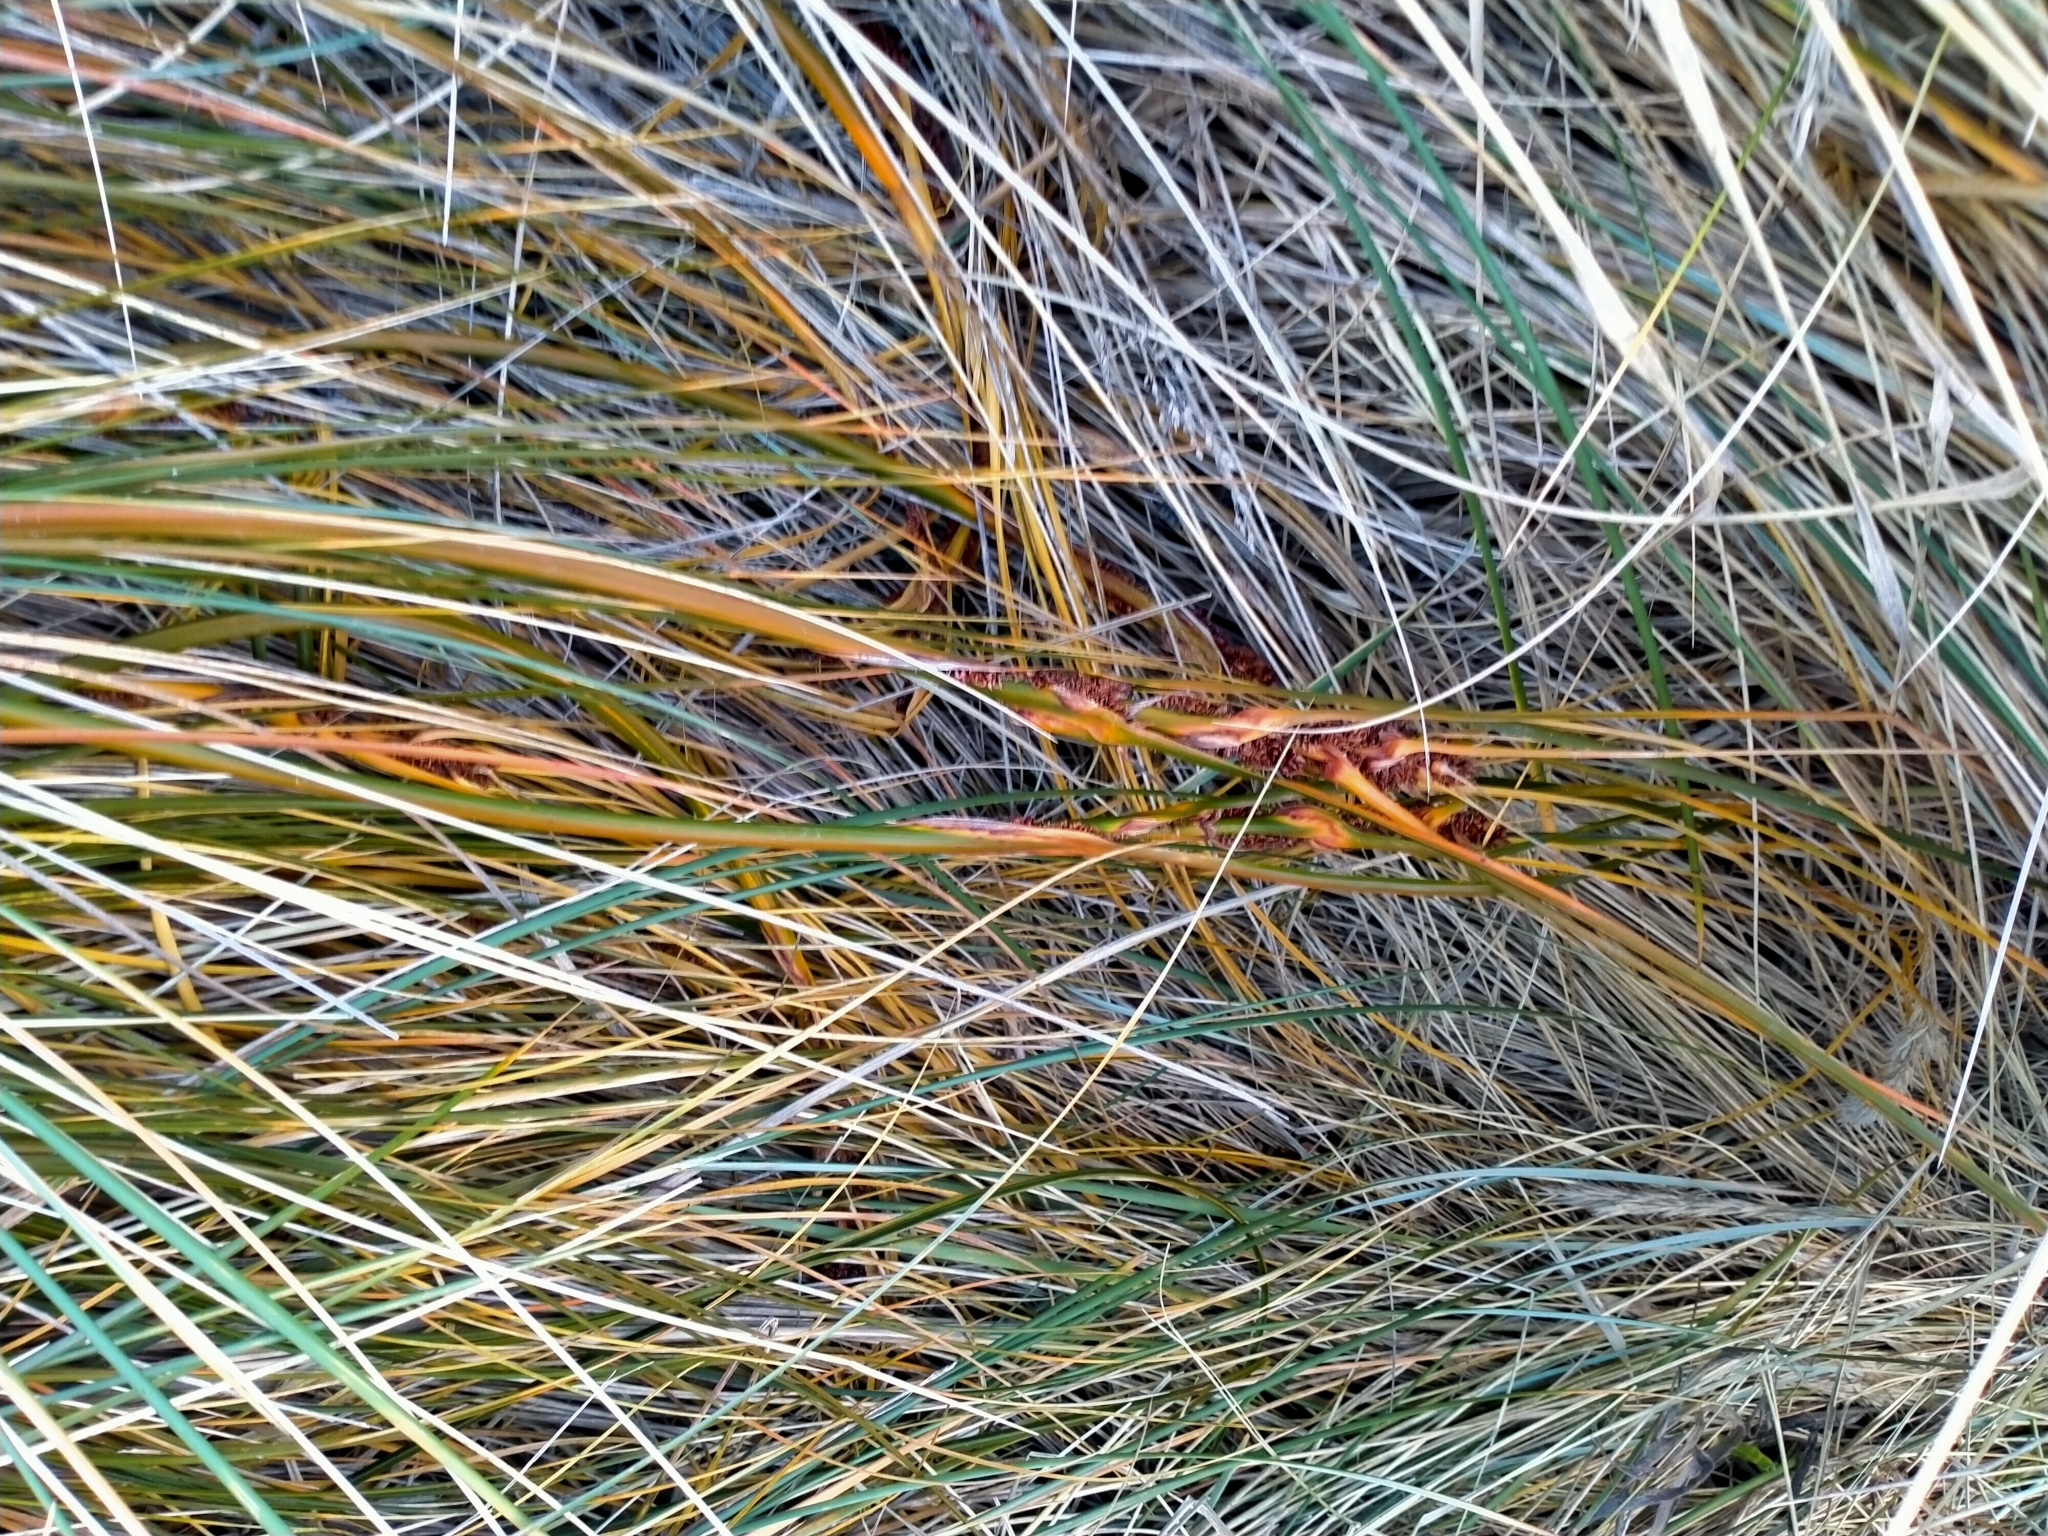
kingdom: Plantae
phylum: Tracheophyta
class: Liliopsida
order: Poales
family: Cyperaceae
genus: Ficinia
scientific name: Ficinia spiralis
